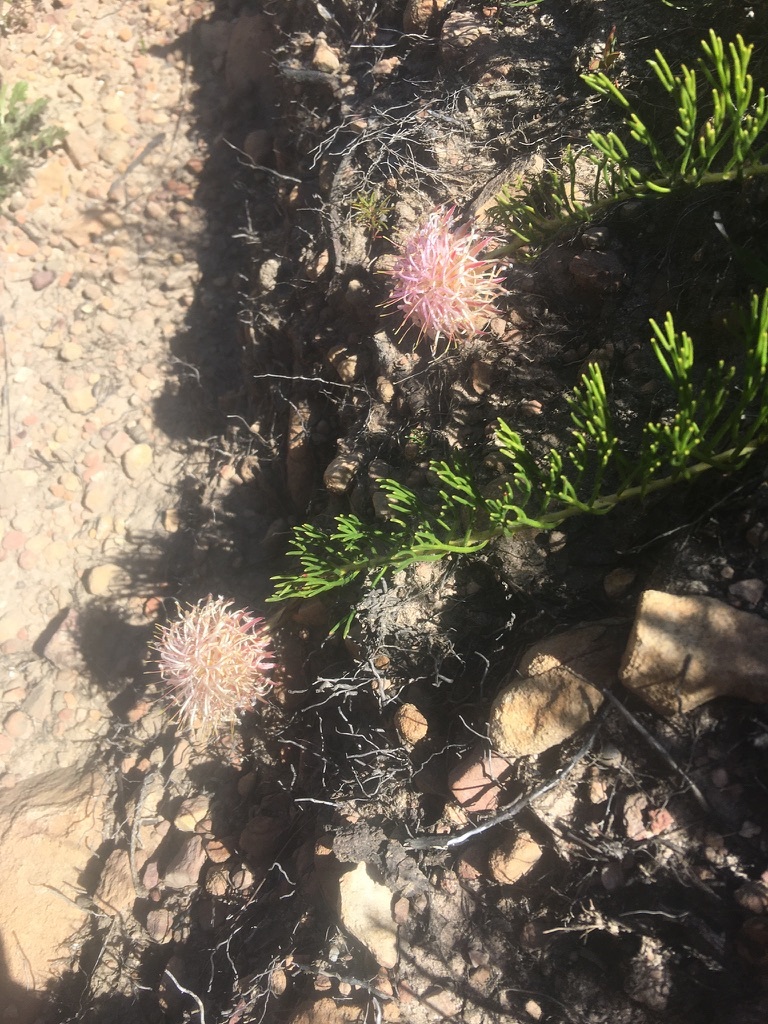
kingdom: Plantae
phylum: Tracheophyta
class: Magnoliopsida
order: Proteales
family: Proteaceae
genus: Serruria
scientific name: Serruria phylicoides
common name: Bearded spiderhead
